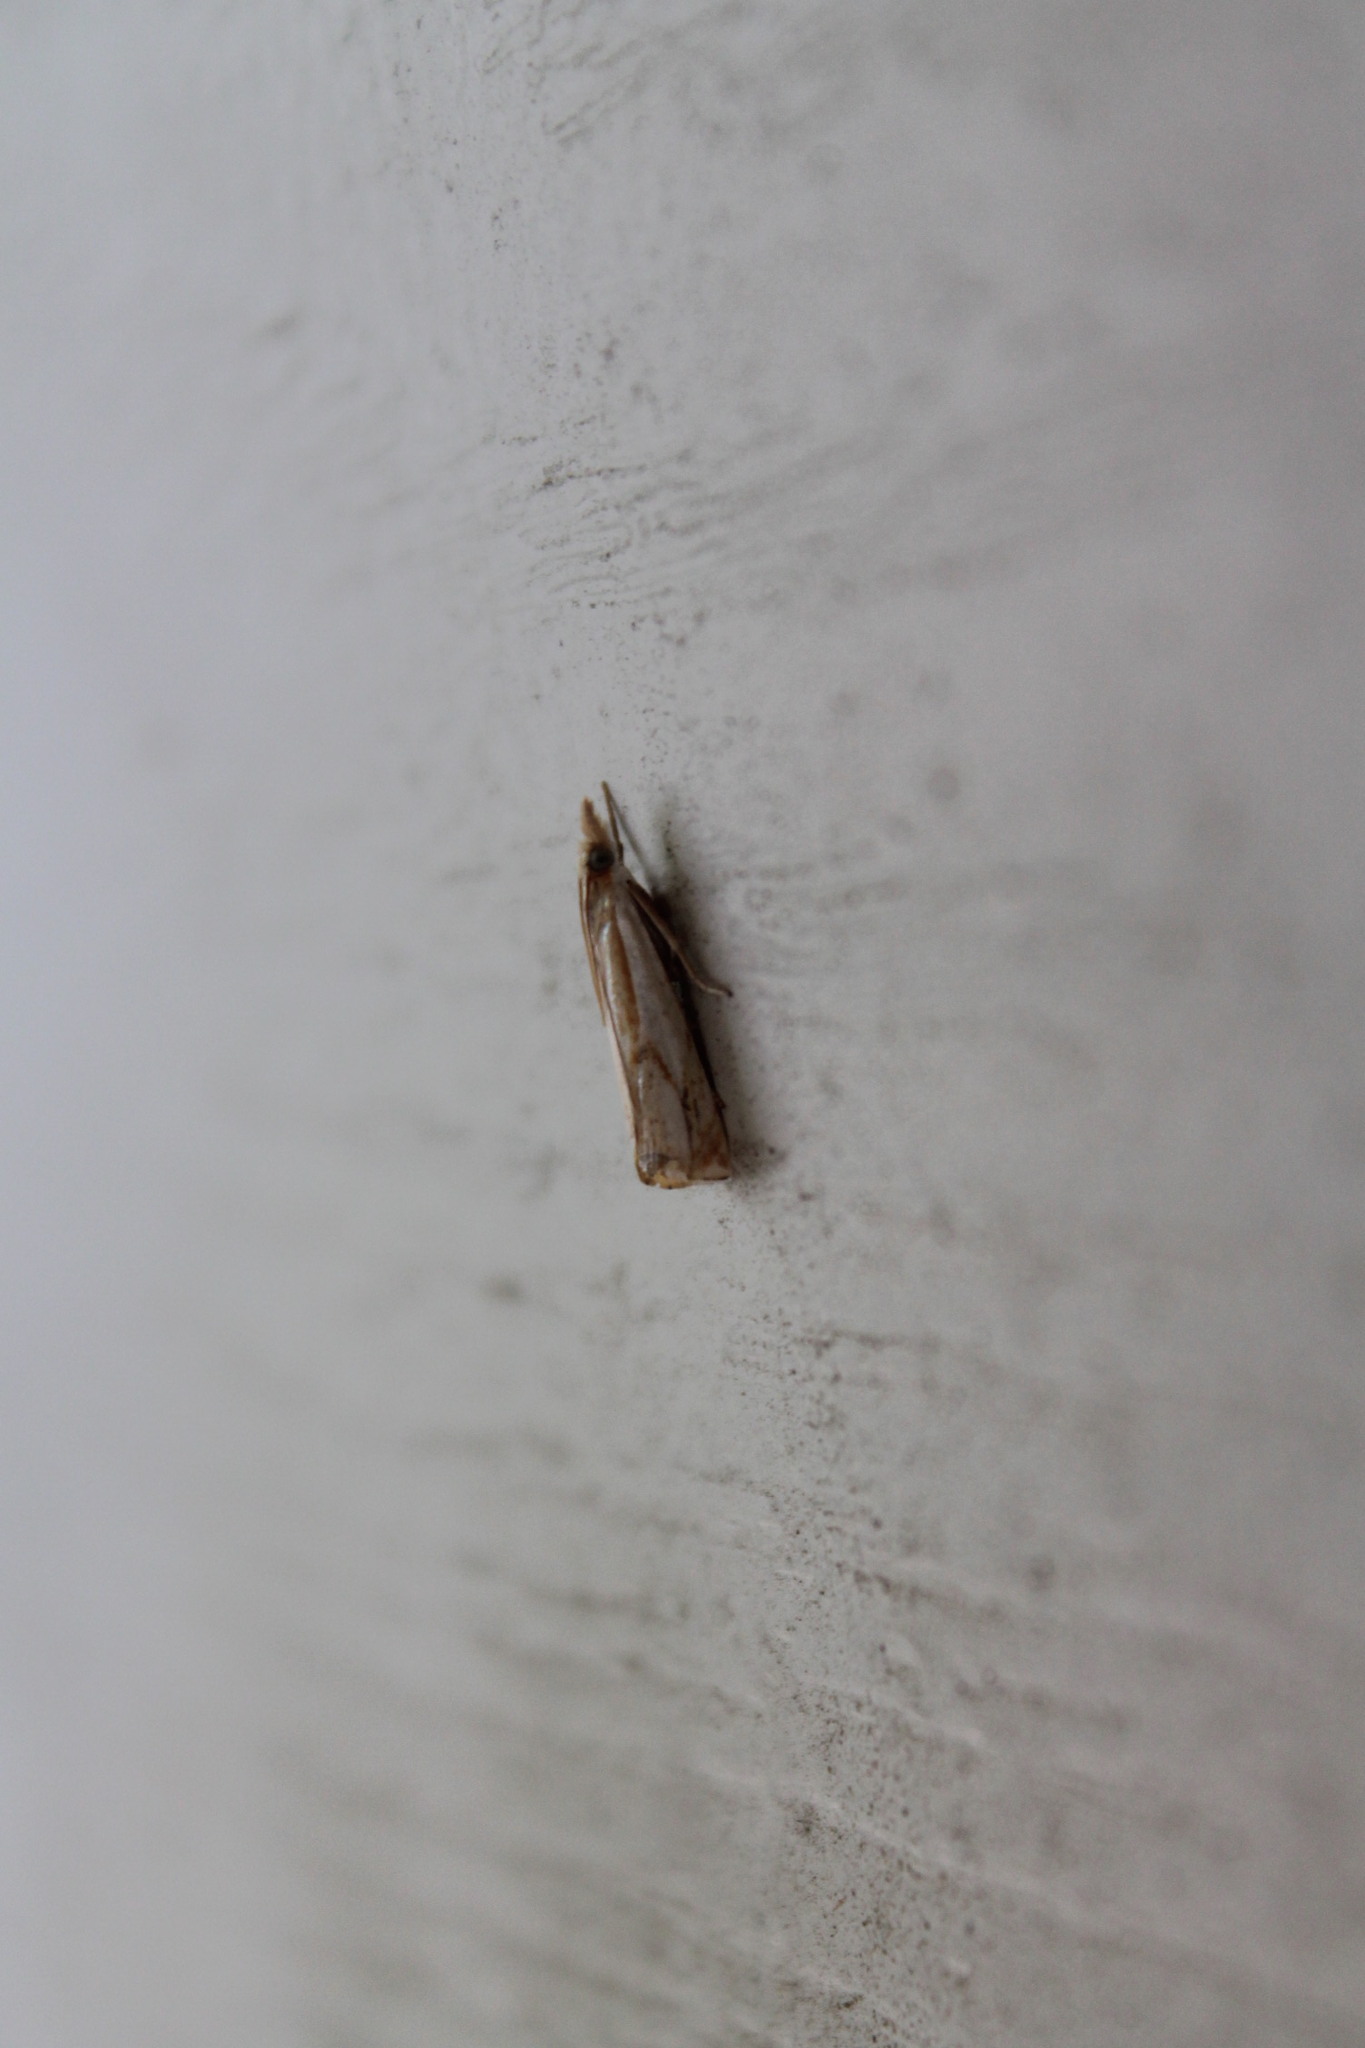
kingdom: Animalia
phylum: Arthropoda
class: Insecta
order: Lepidoptera
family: Crambidae
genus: Crambus
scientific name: Crambus agitatellus
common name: Double-banded grass-veneer
